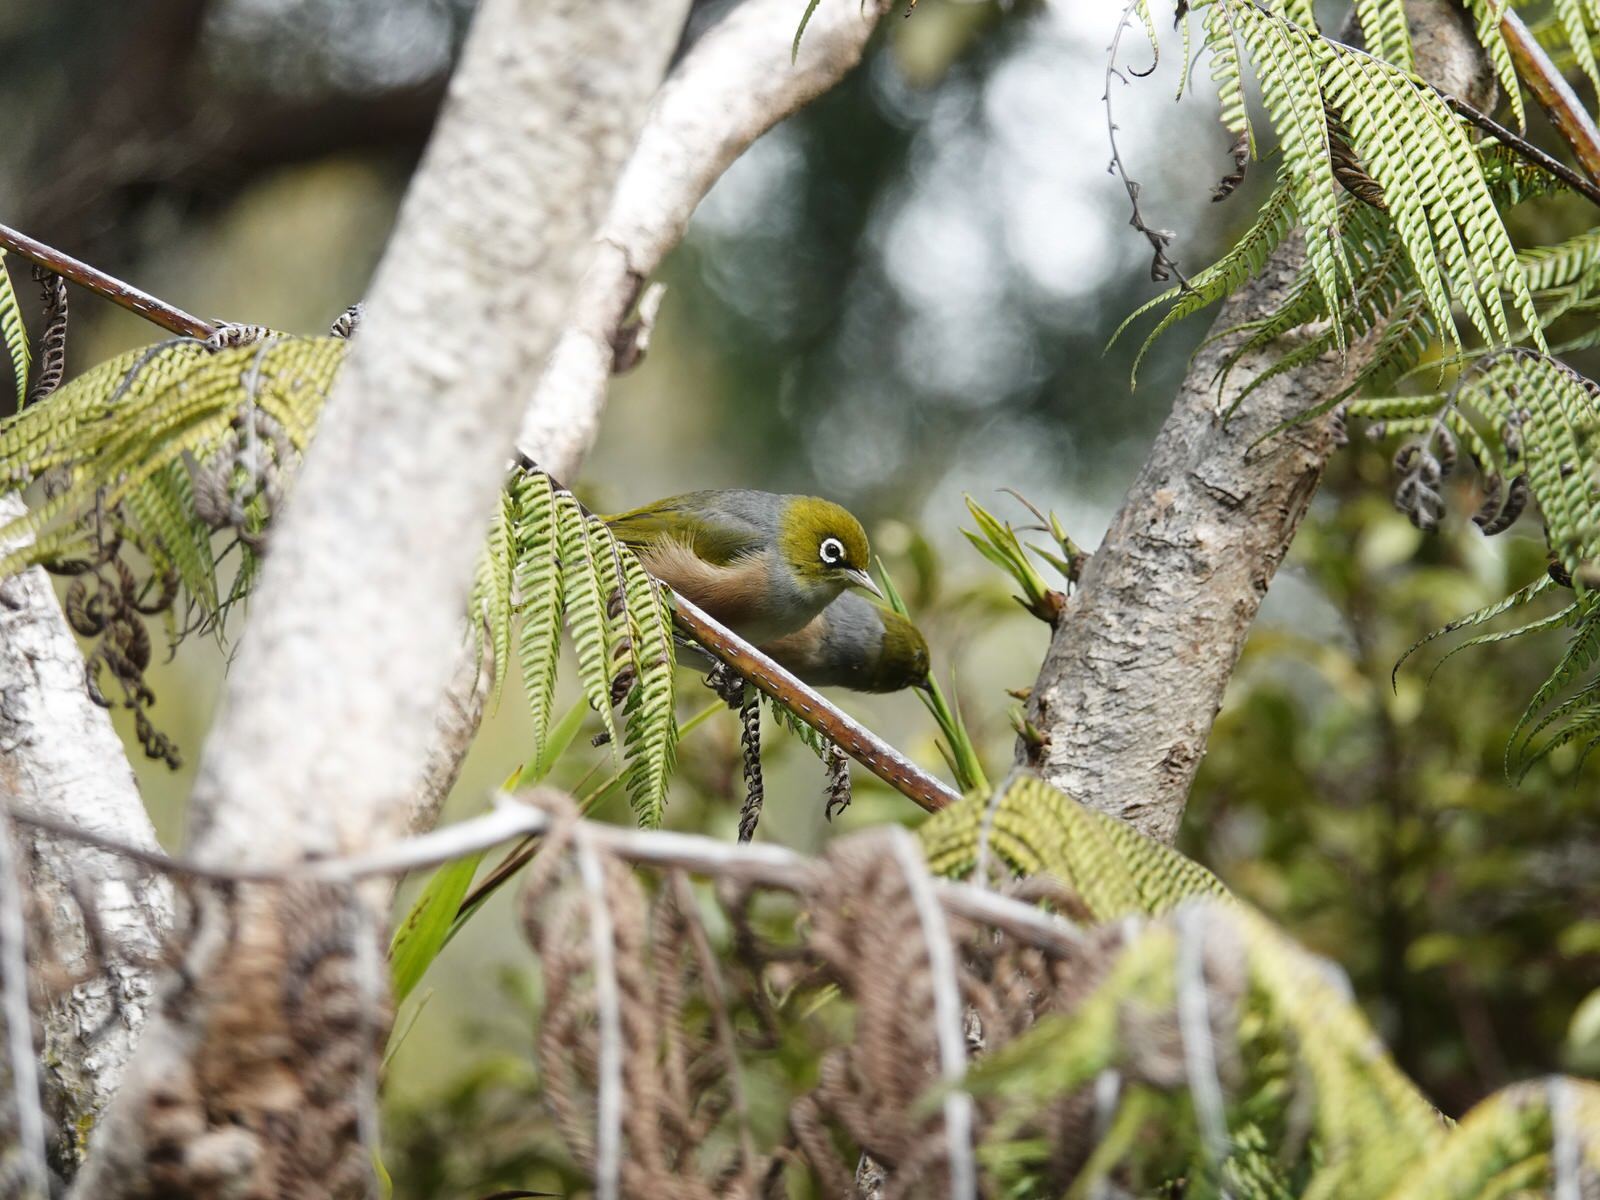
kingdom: Animalia
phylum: Chordata
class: Aves
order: Passeriformes
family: Zosteropidae
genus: Zosterops
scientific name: Zosterops lateralis
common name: Silvereye
